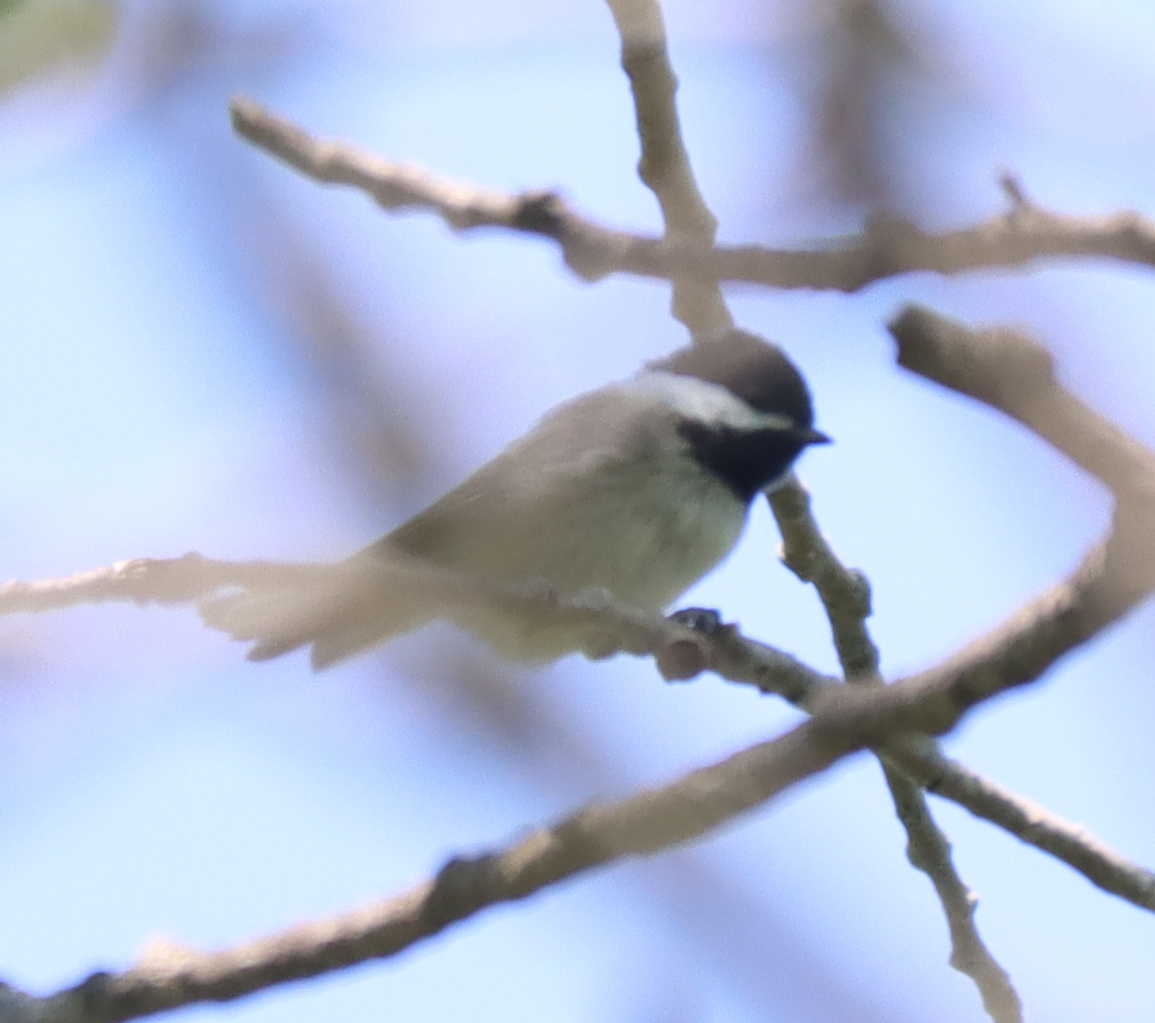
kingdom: Animalia
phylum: Chordata
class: Aves
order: Passeriformes
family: Paridae
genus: Poecile
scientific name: Poecile atricapillus
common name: Black-capped chickadee
